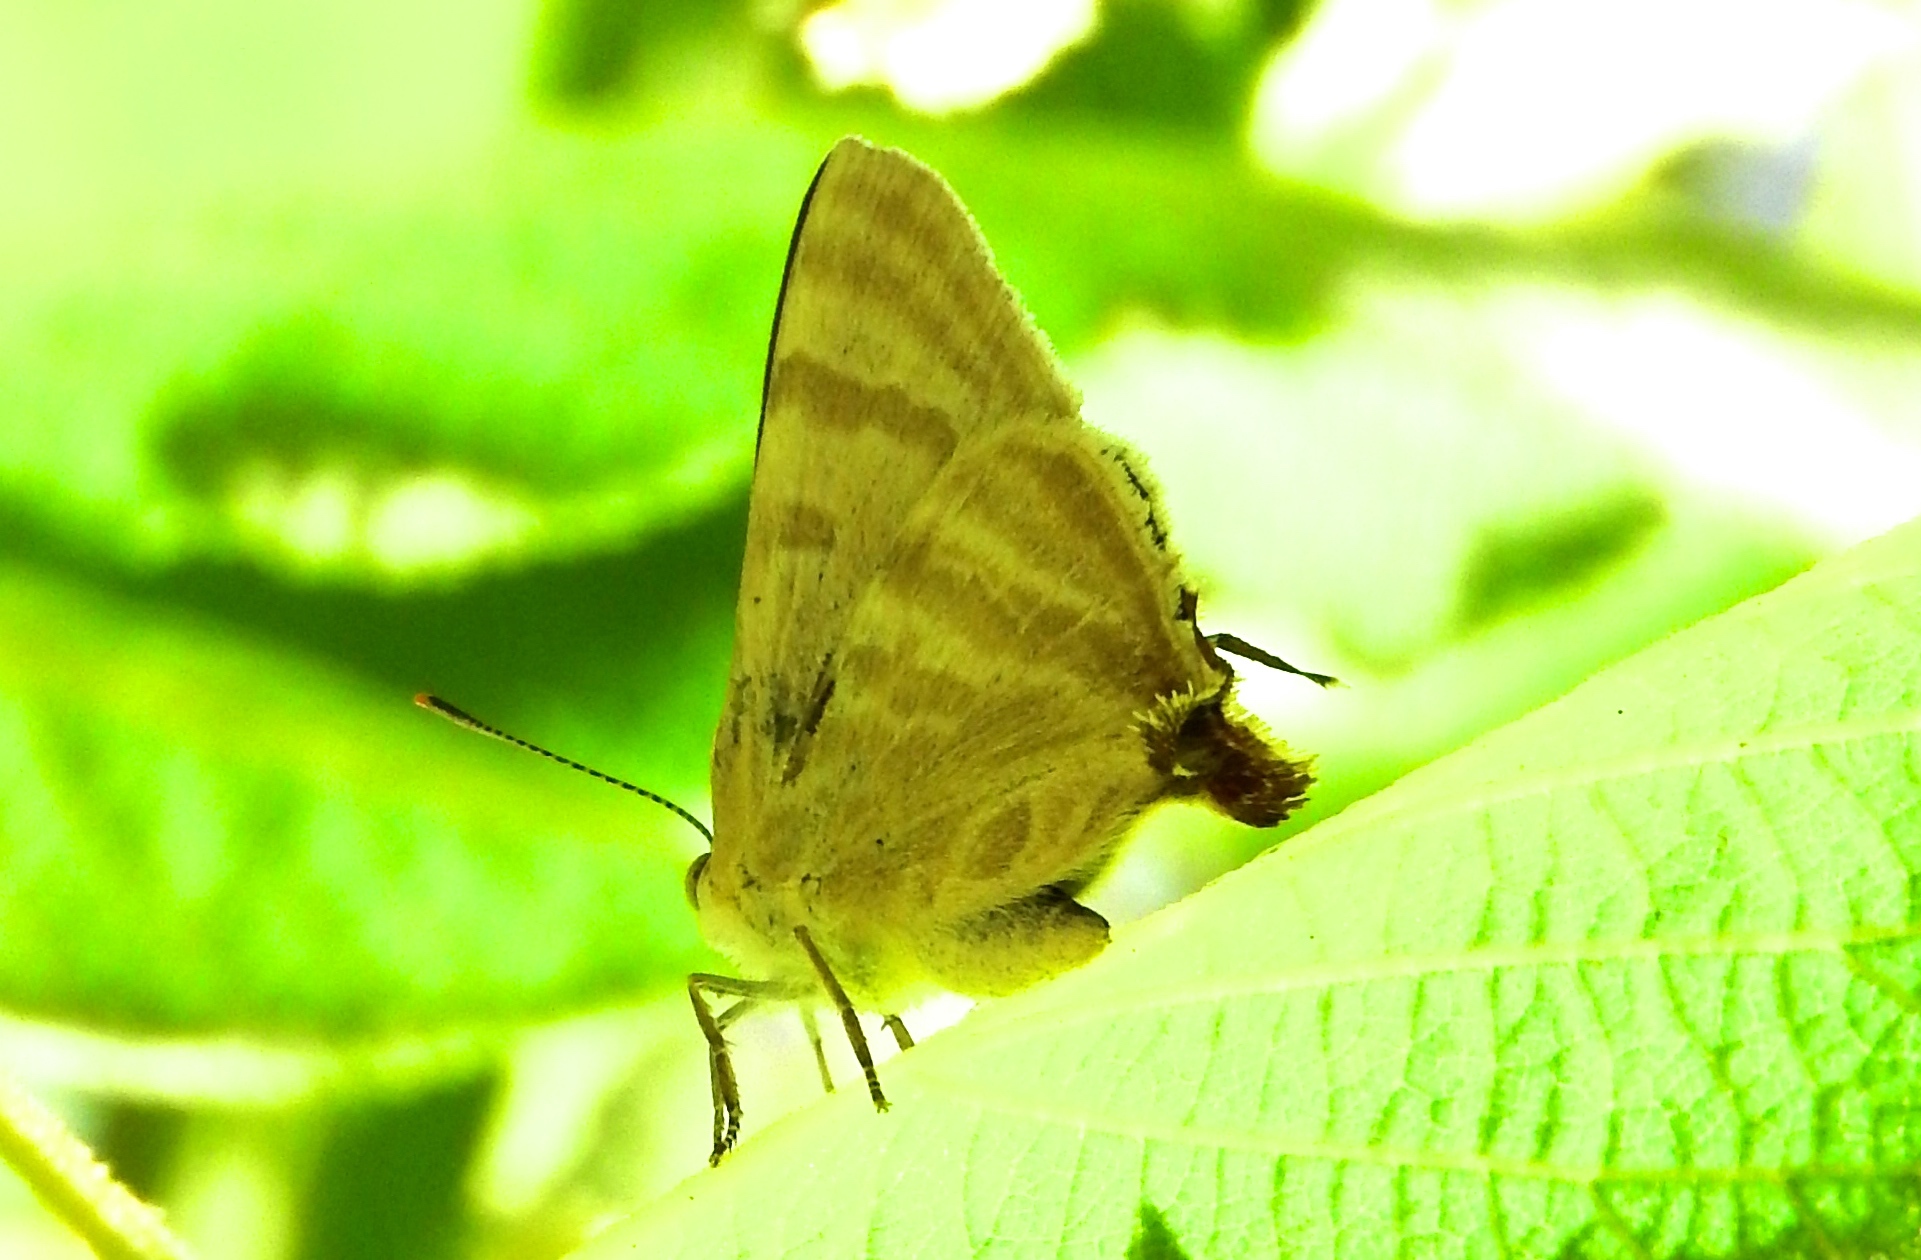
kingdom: Animalia
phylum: Arthropoda
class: Insecta
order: Lepidoptera
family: Lycaenidae
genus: Dolymorpha
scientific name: Dolymorpha jada
